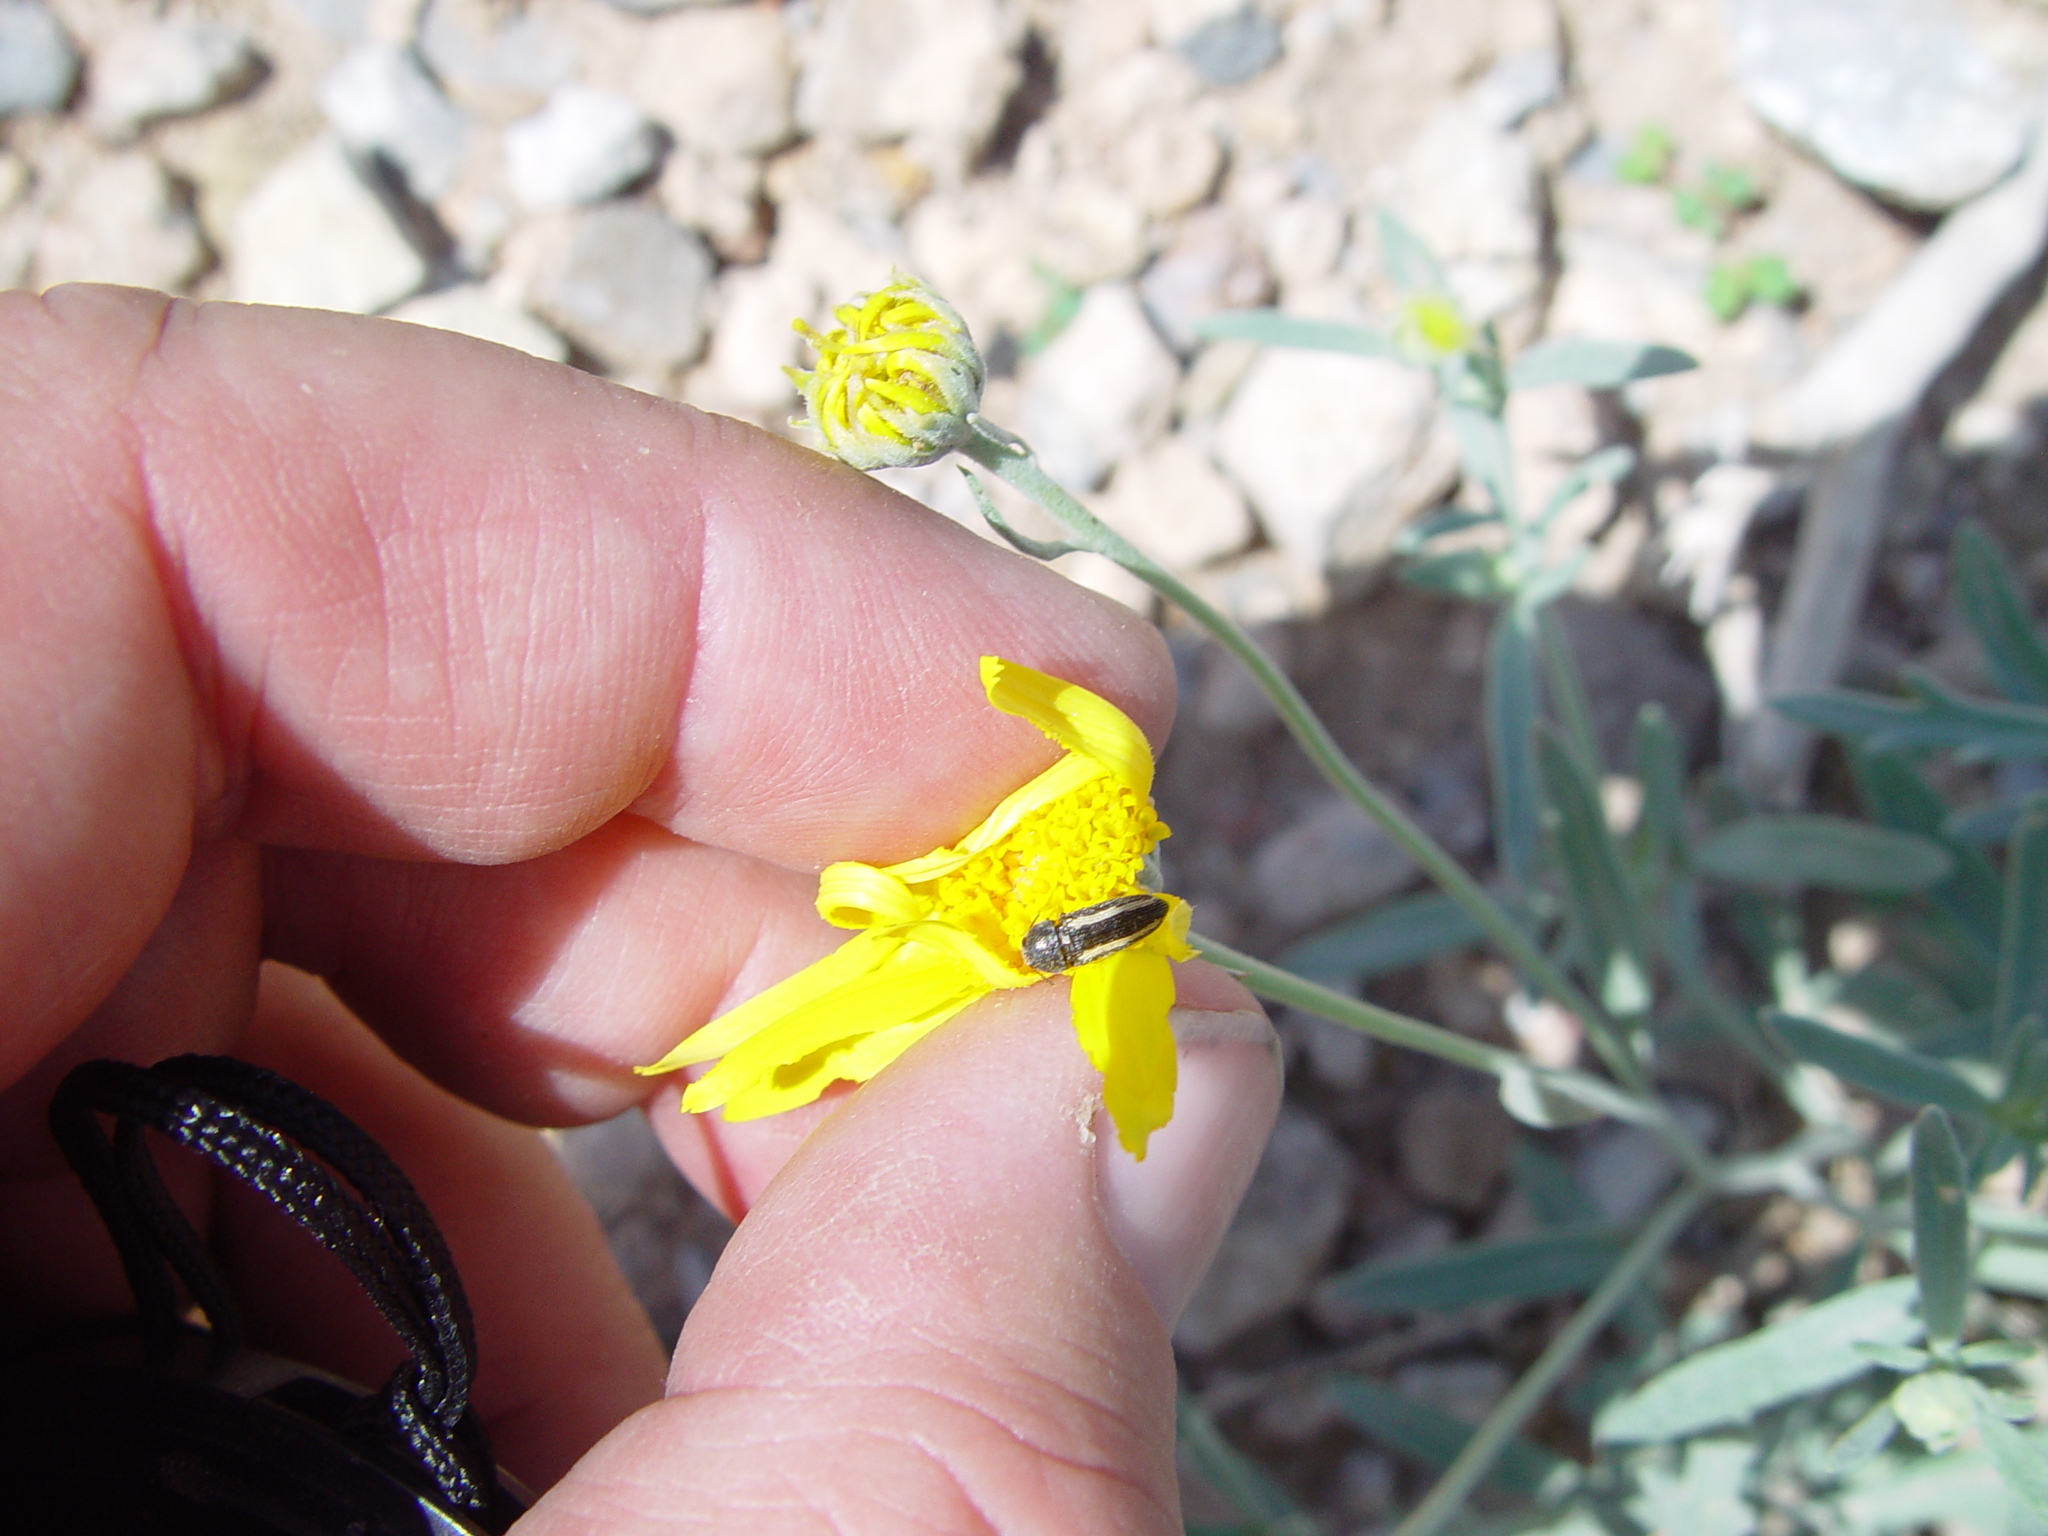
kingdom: Animalia
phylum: Arthropoda
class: Insecta
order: Coleoptera
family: Buprestidae
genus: Acmaeodera
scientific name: Acmaeodera cazieri
